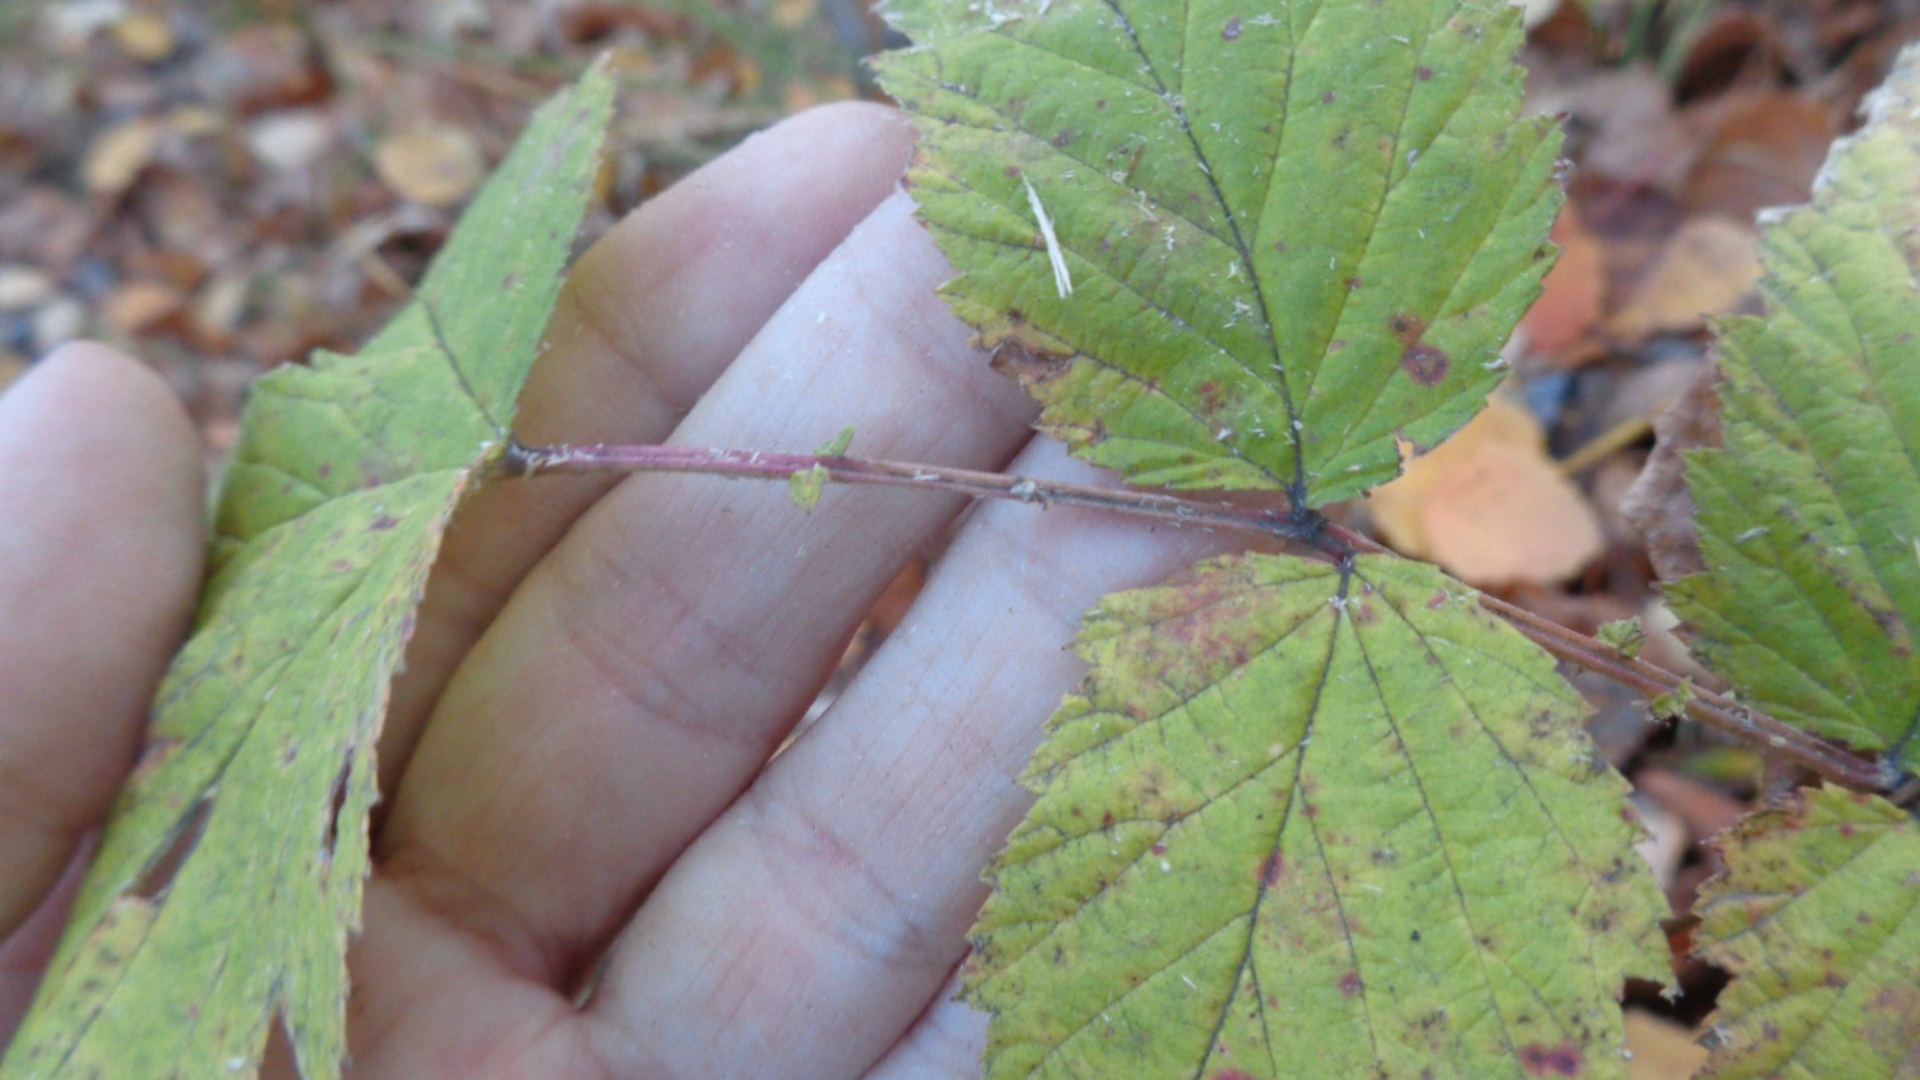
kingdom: Plantae
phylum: Tracheophyta
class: Magnoliopsida
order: Rosales
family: Rosaceae
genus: Filipendula
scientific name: Filipendula ulmaria
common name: Meadowsweet
